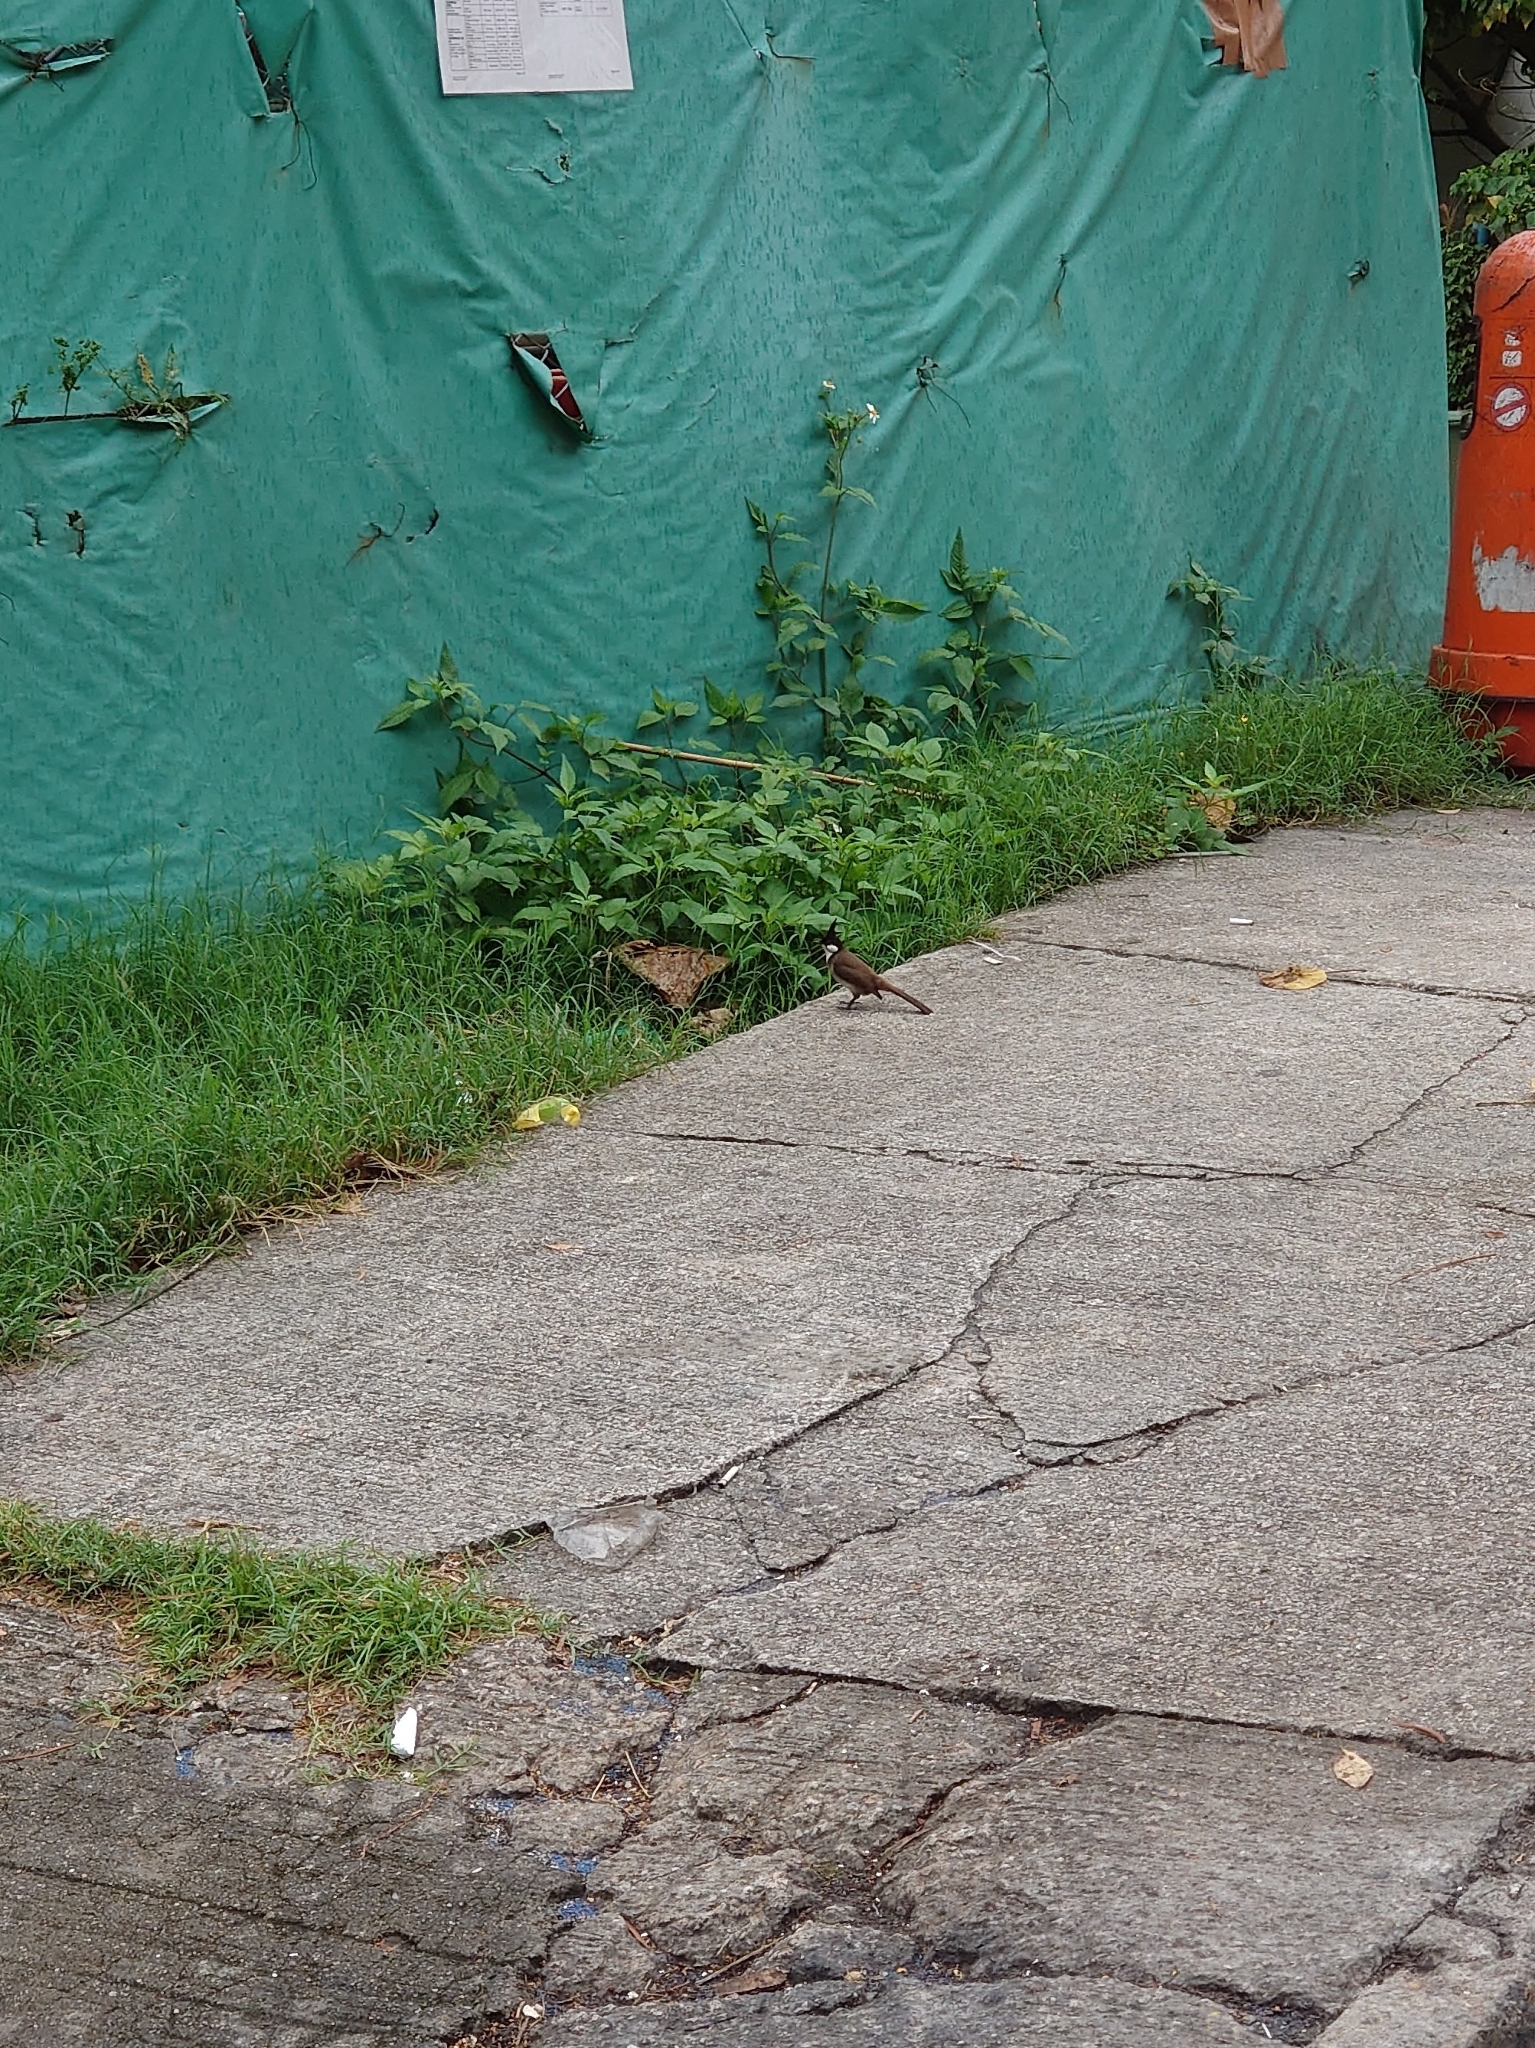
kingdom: Animalia
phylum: Chordata
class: Aves
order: Passeriformes
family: Pycnonotidae
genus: Pycnonotus
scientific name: Pycnonotus jocosus
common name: Red-whiskered bulbul
